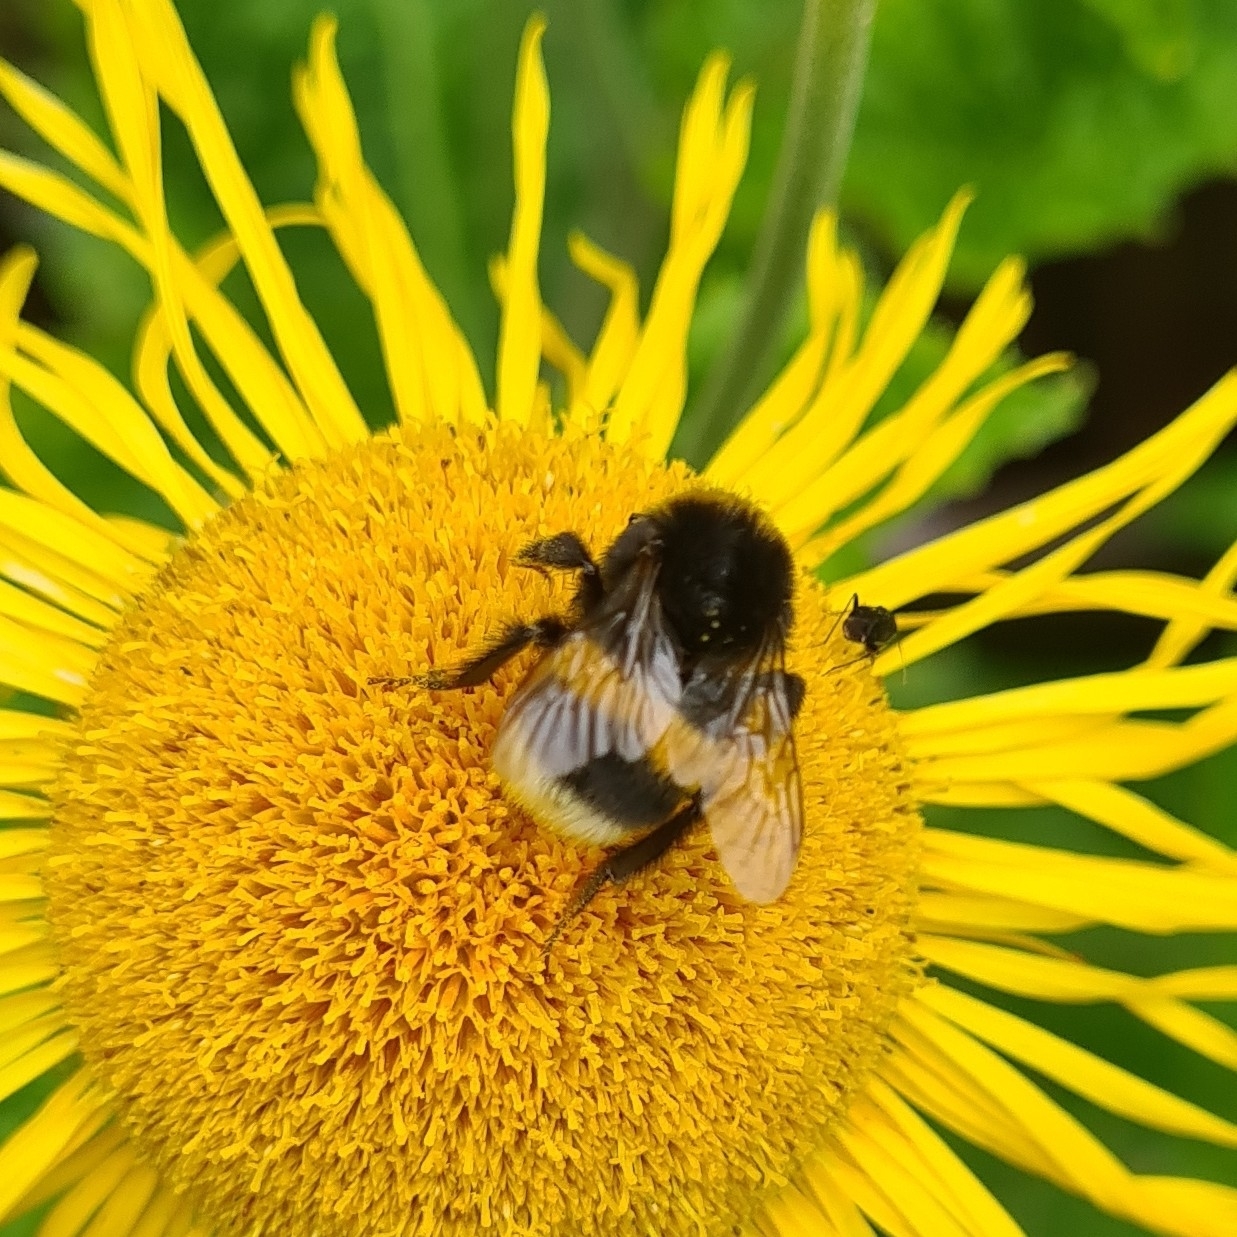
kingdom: Animalia
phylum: Arthropoda
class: Insecta
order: Hymenoptera
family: Apidae
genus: Bombus
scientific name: Bombus
